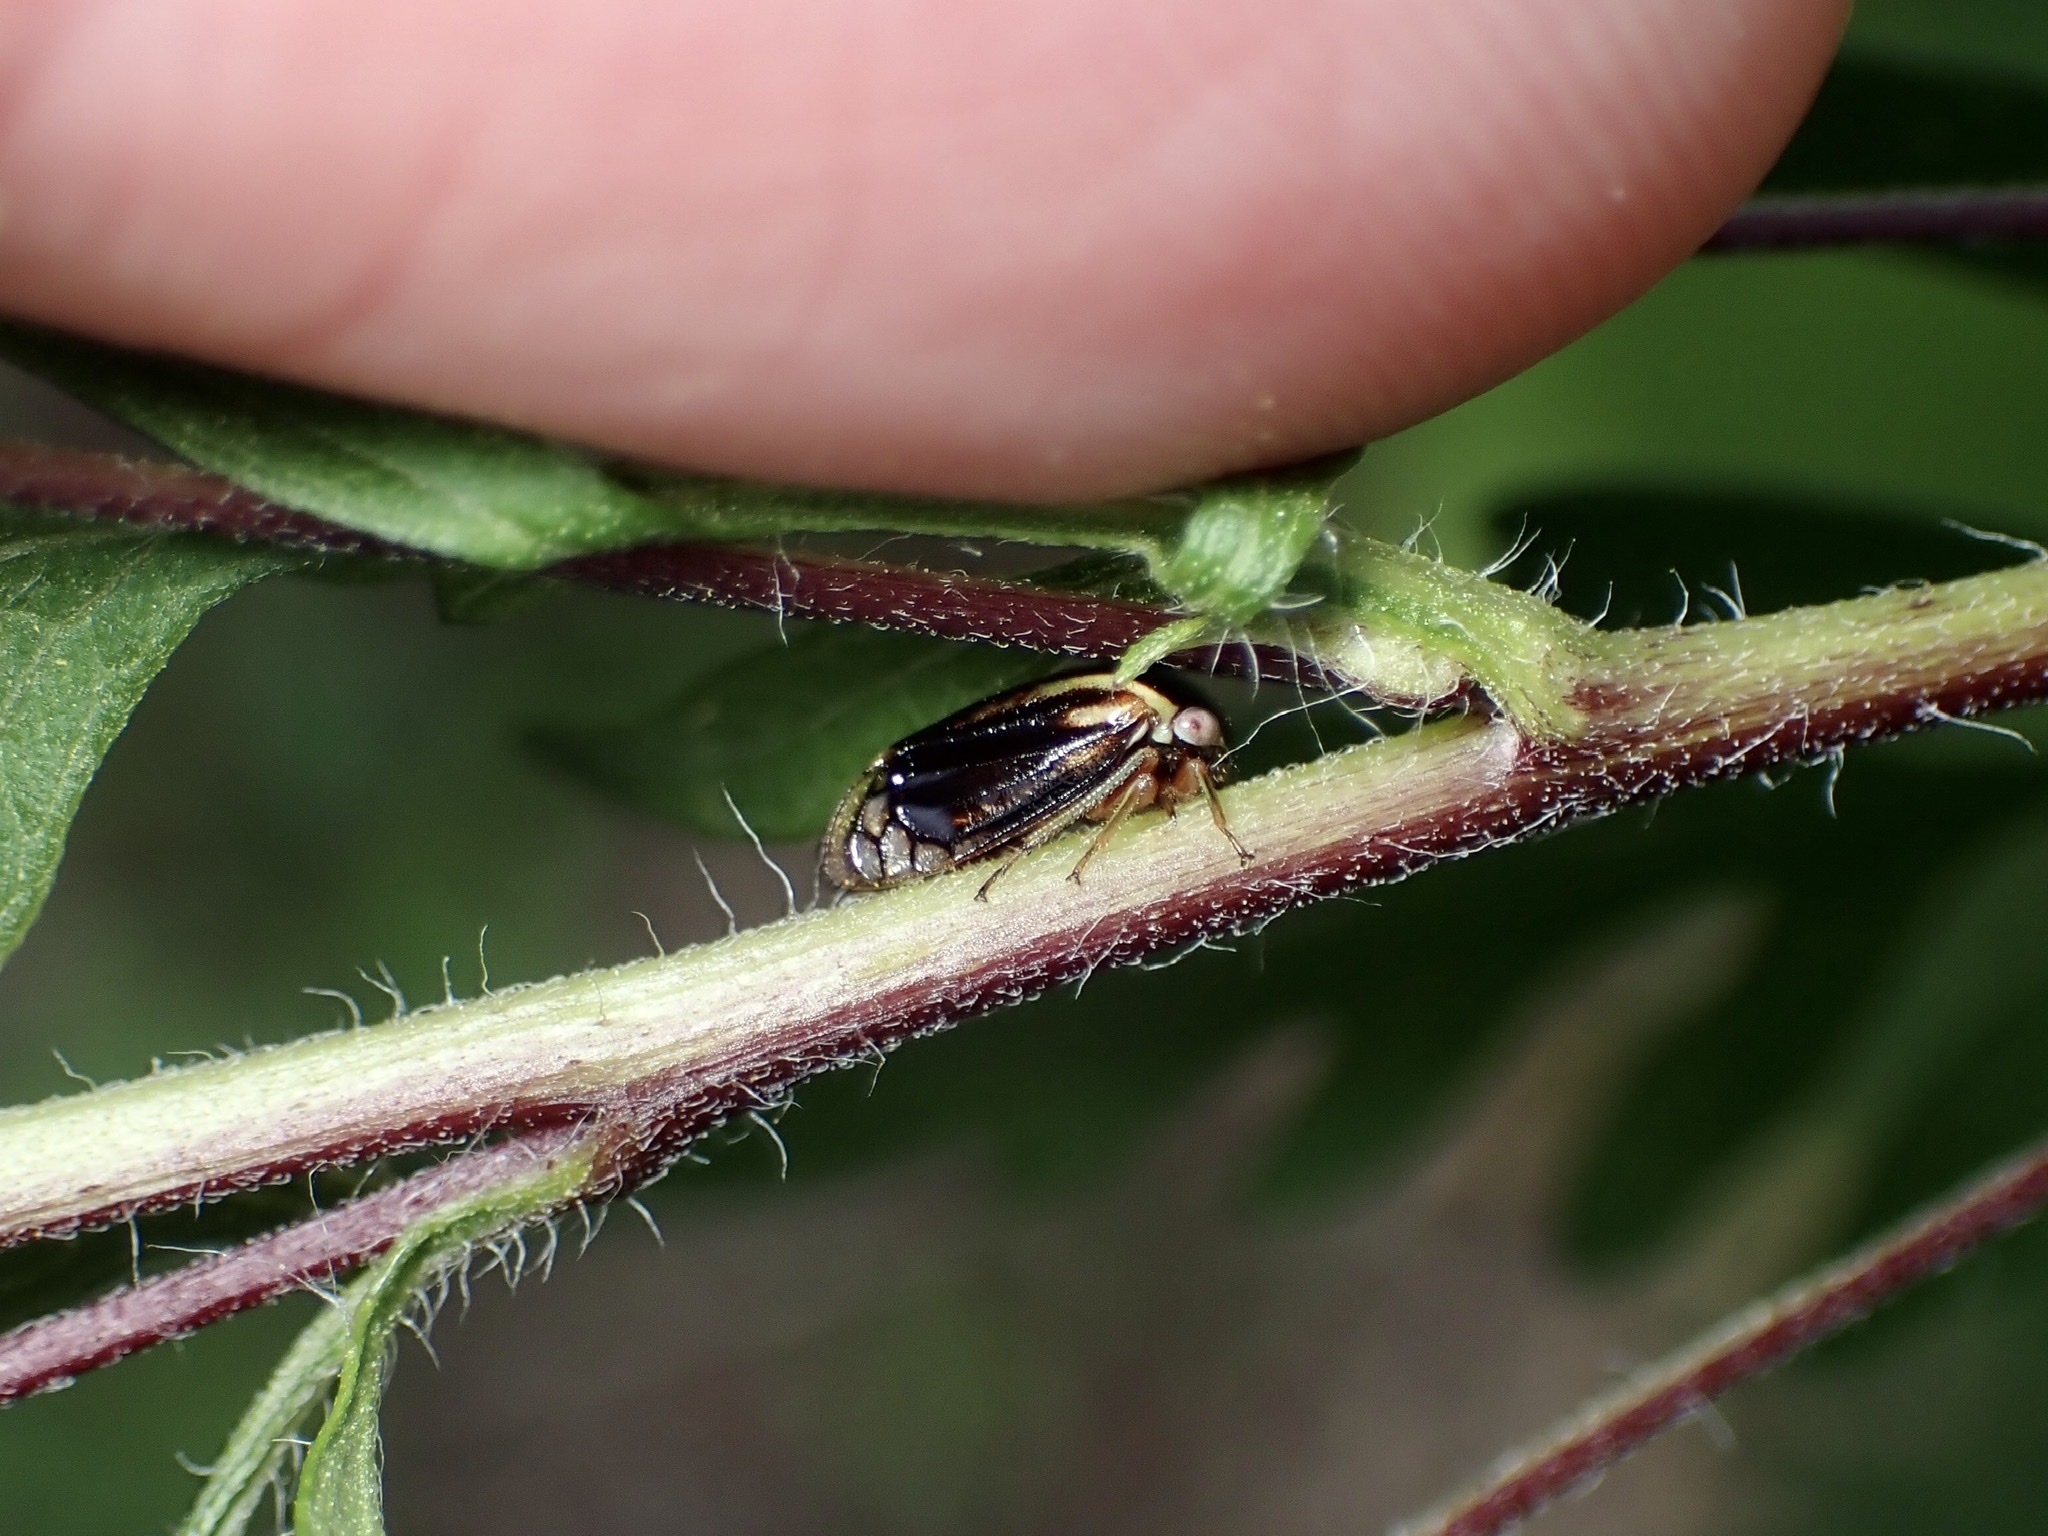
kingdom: Animalia
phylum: Arthropoda
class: Insecta
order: Hemiptera
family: Membracidae
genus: Acutalis
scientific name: Acutalis tartarea
